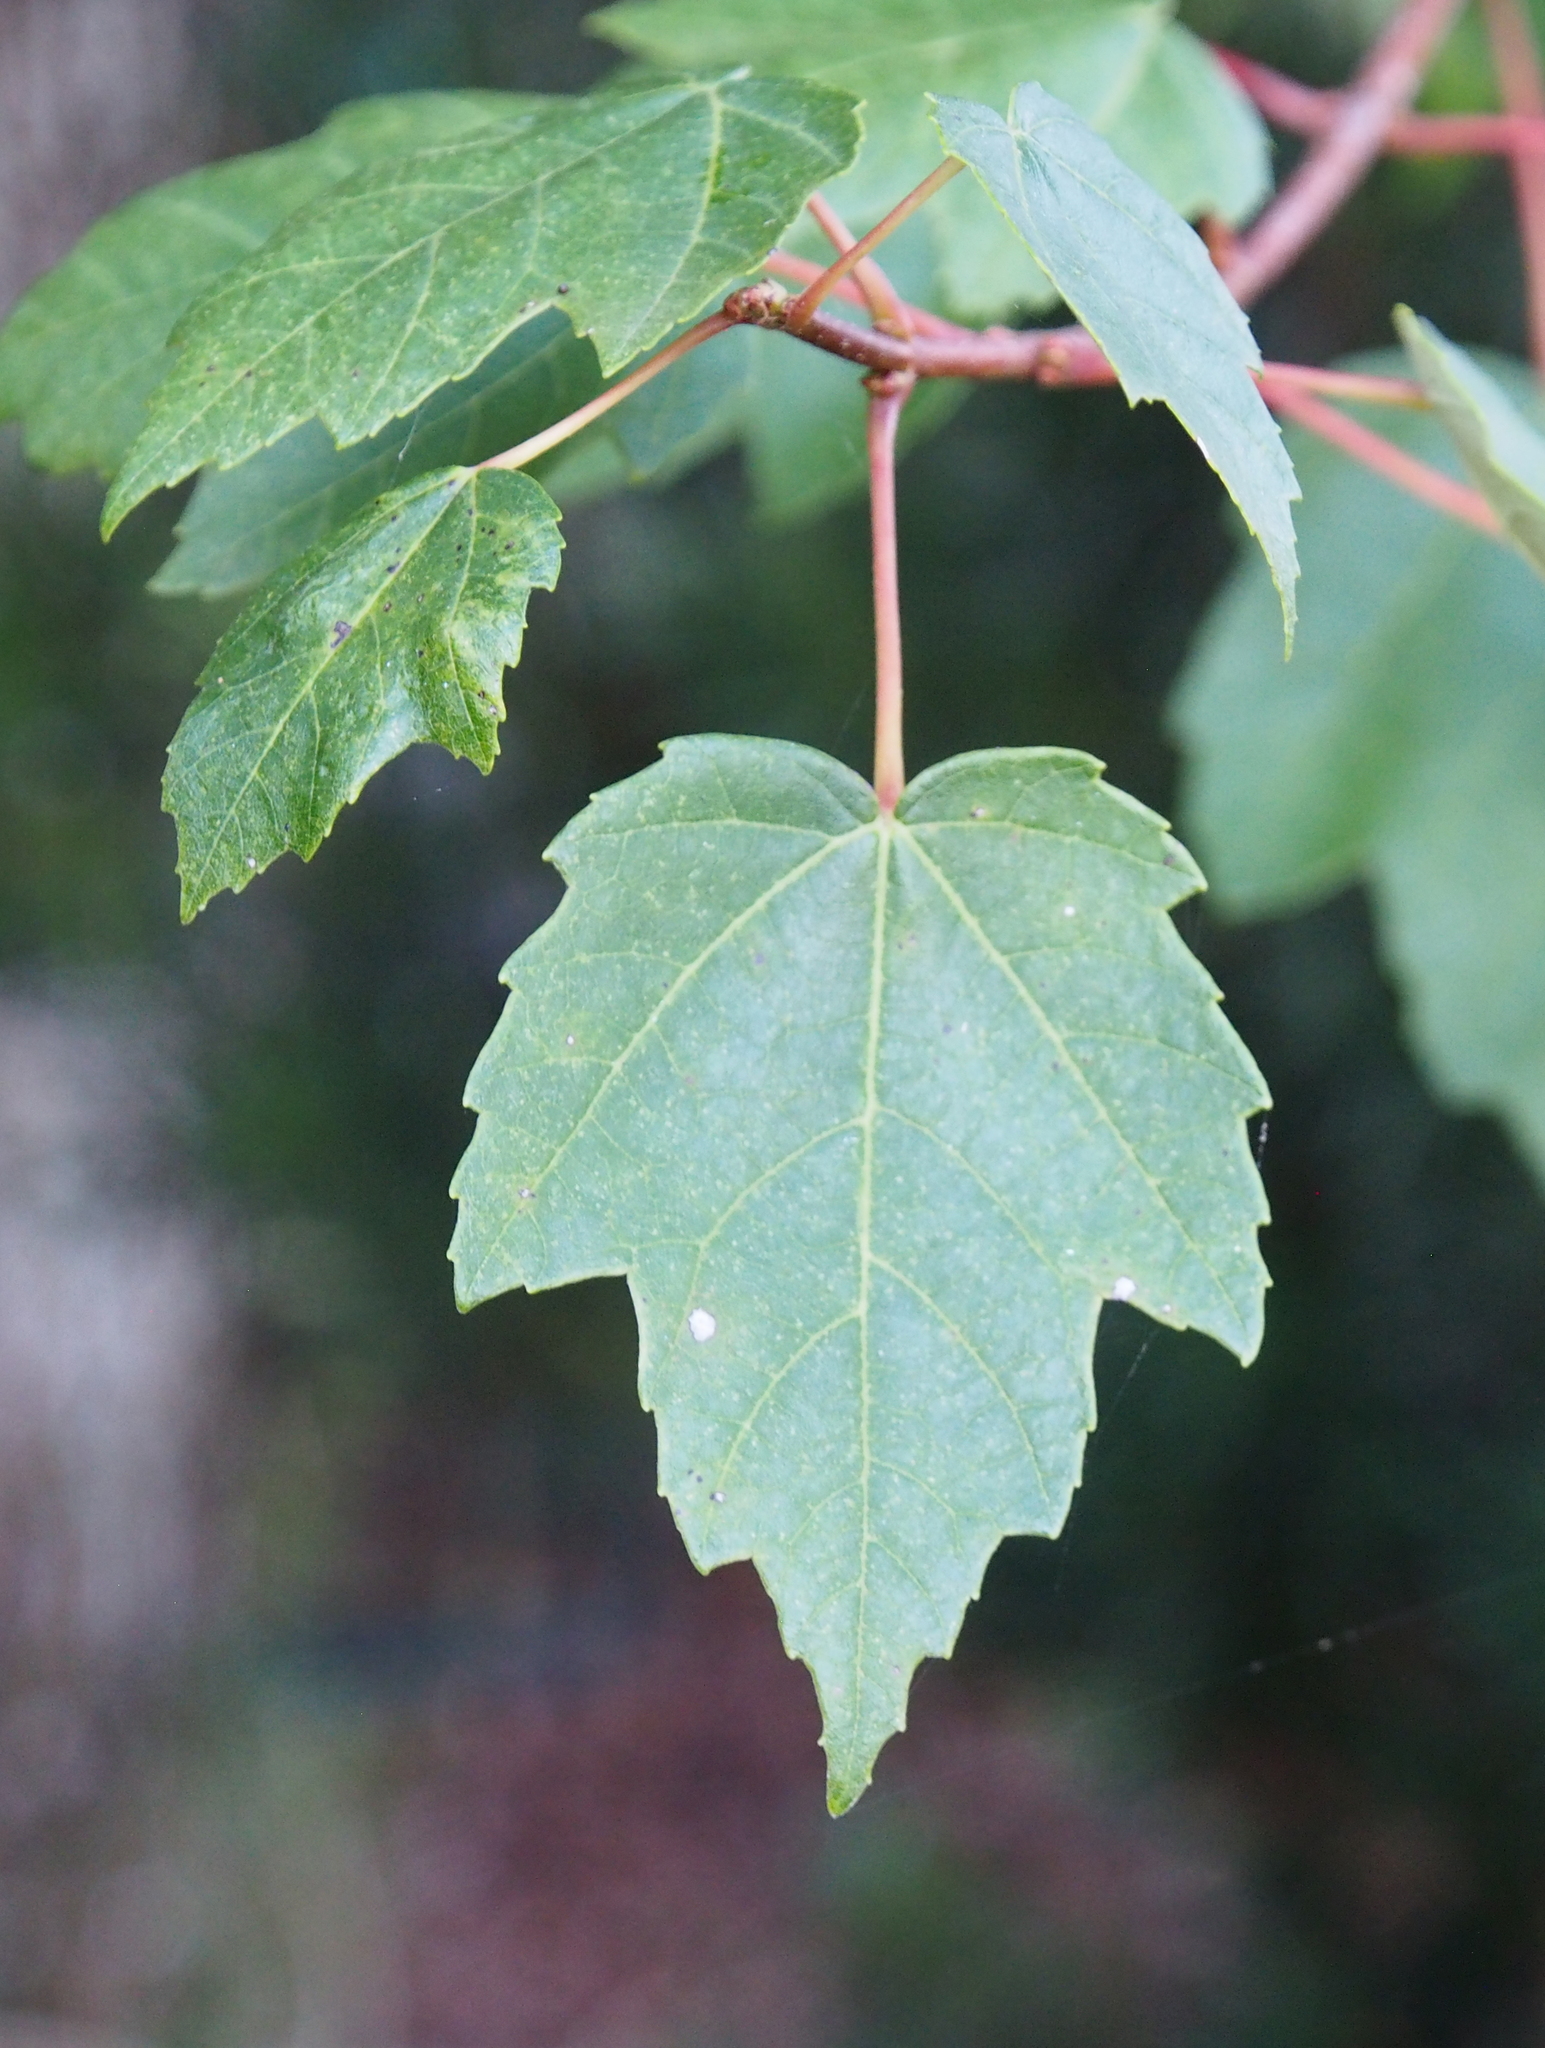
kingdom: Plantae
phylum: Tracheophyta
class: Magnoliopsida
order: Sapindales
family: Sapindaceae
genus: Acer
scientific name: Acer rubrum
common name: Red maple
